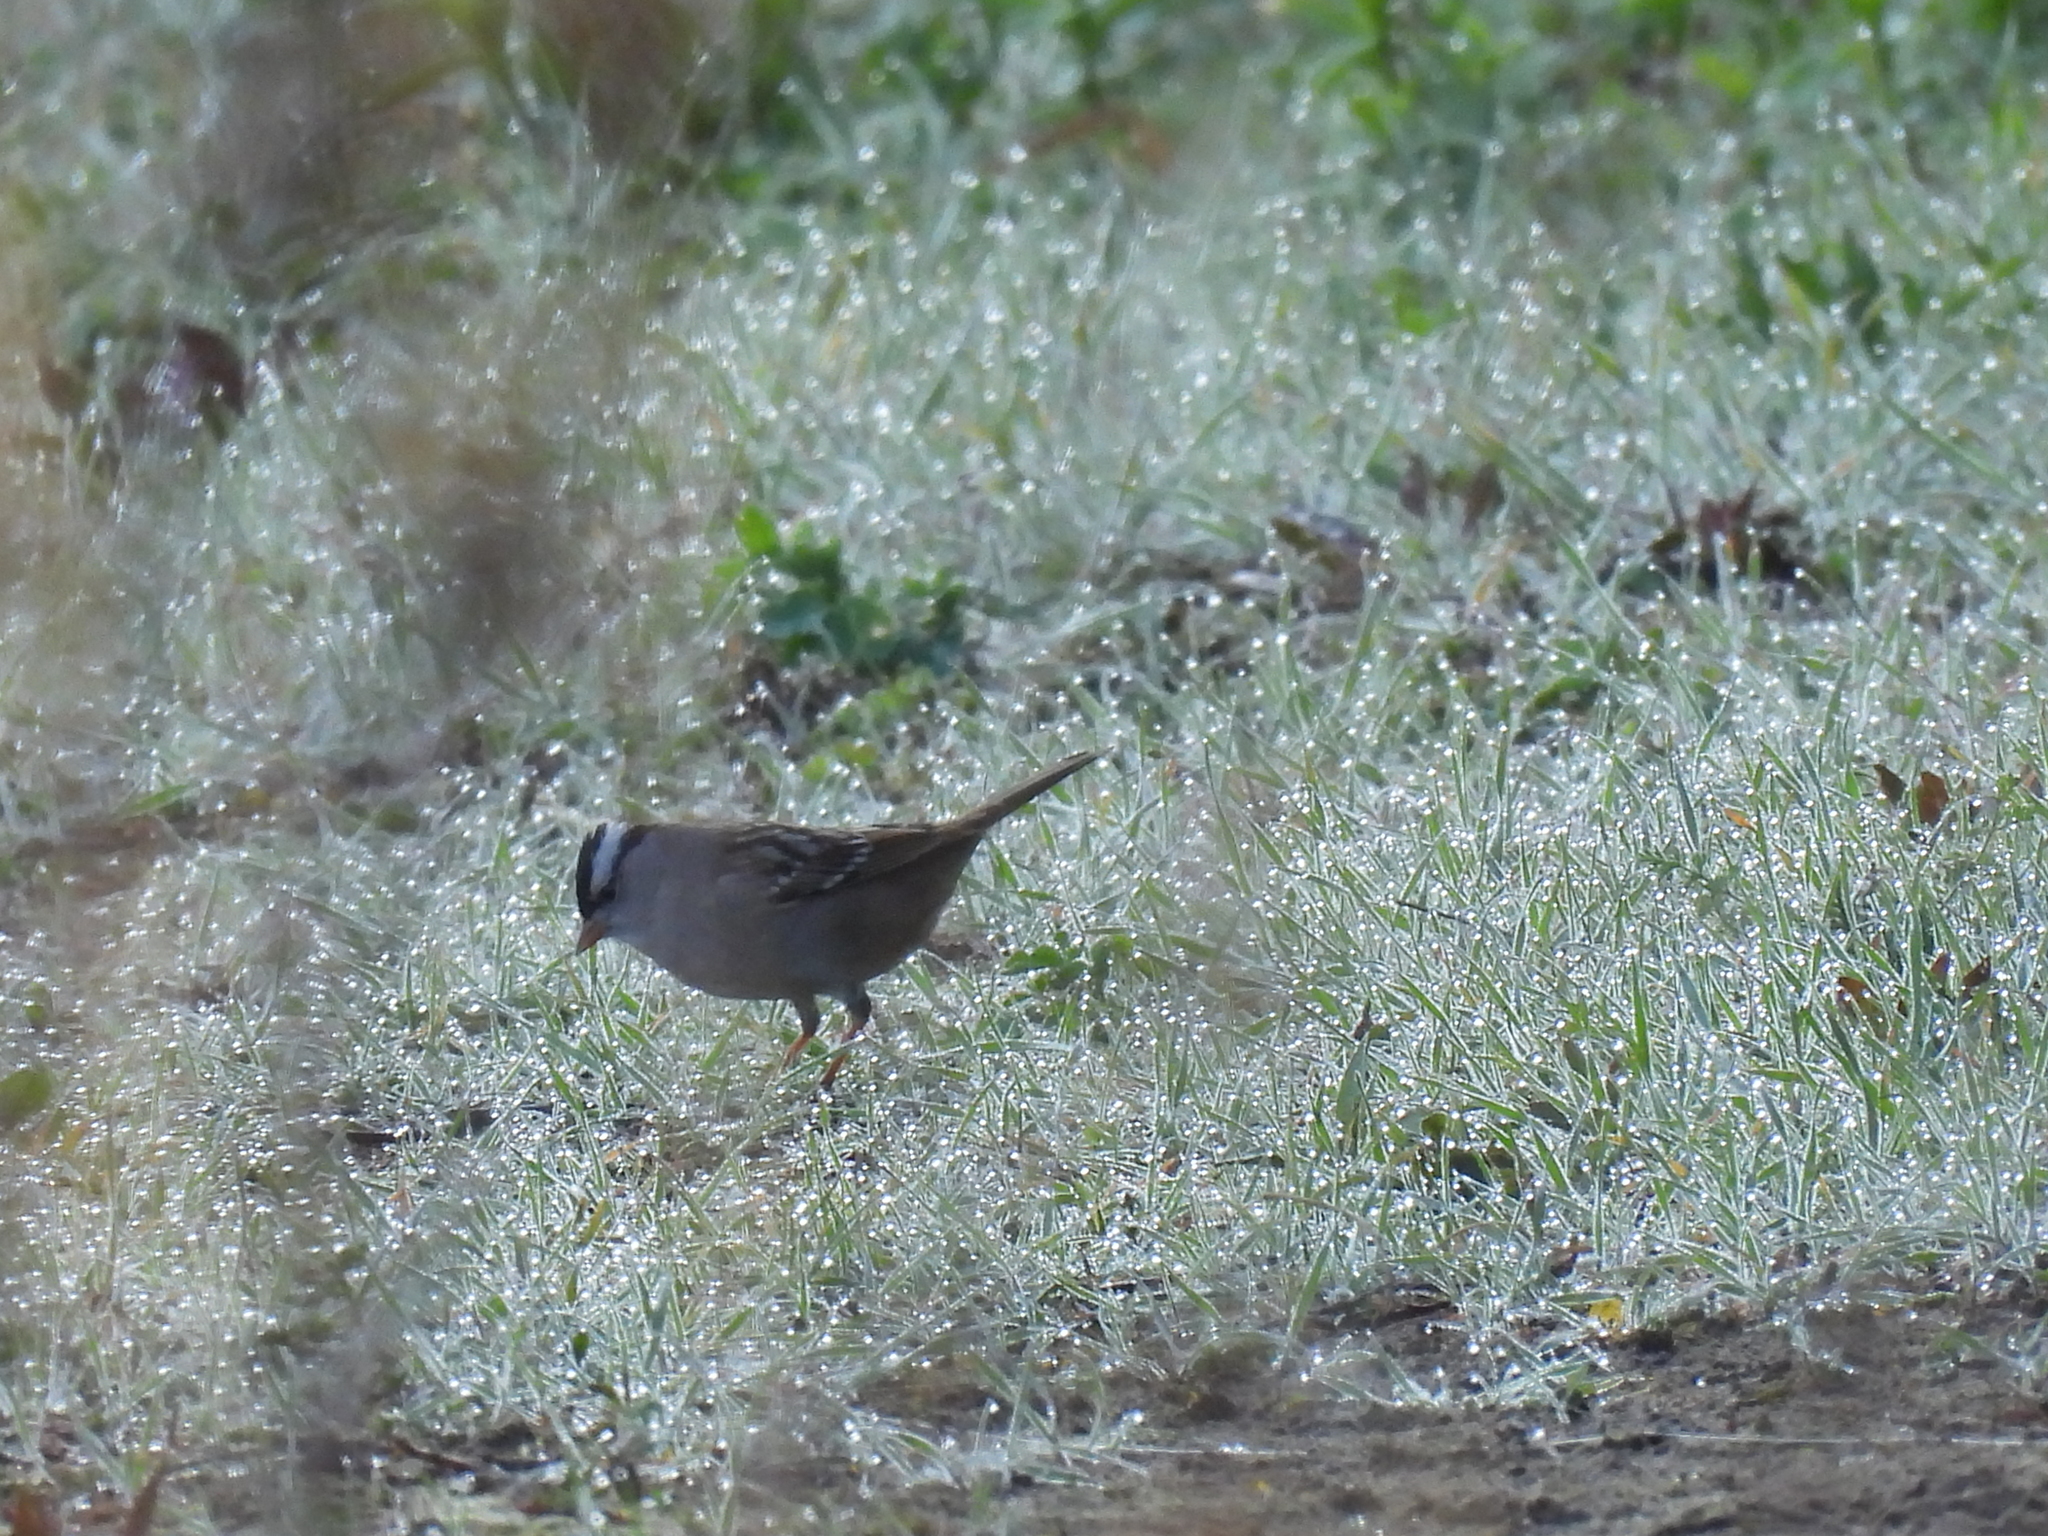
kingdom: Animalia
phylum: Chordata
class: Aves
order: Passeriformes
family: Passerellidae
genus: Zonotrichia
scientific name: Zonotrichia leucophrys
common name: White-crowned sparrow
